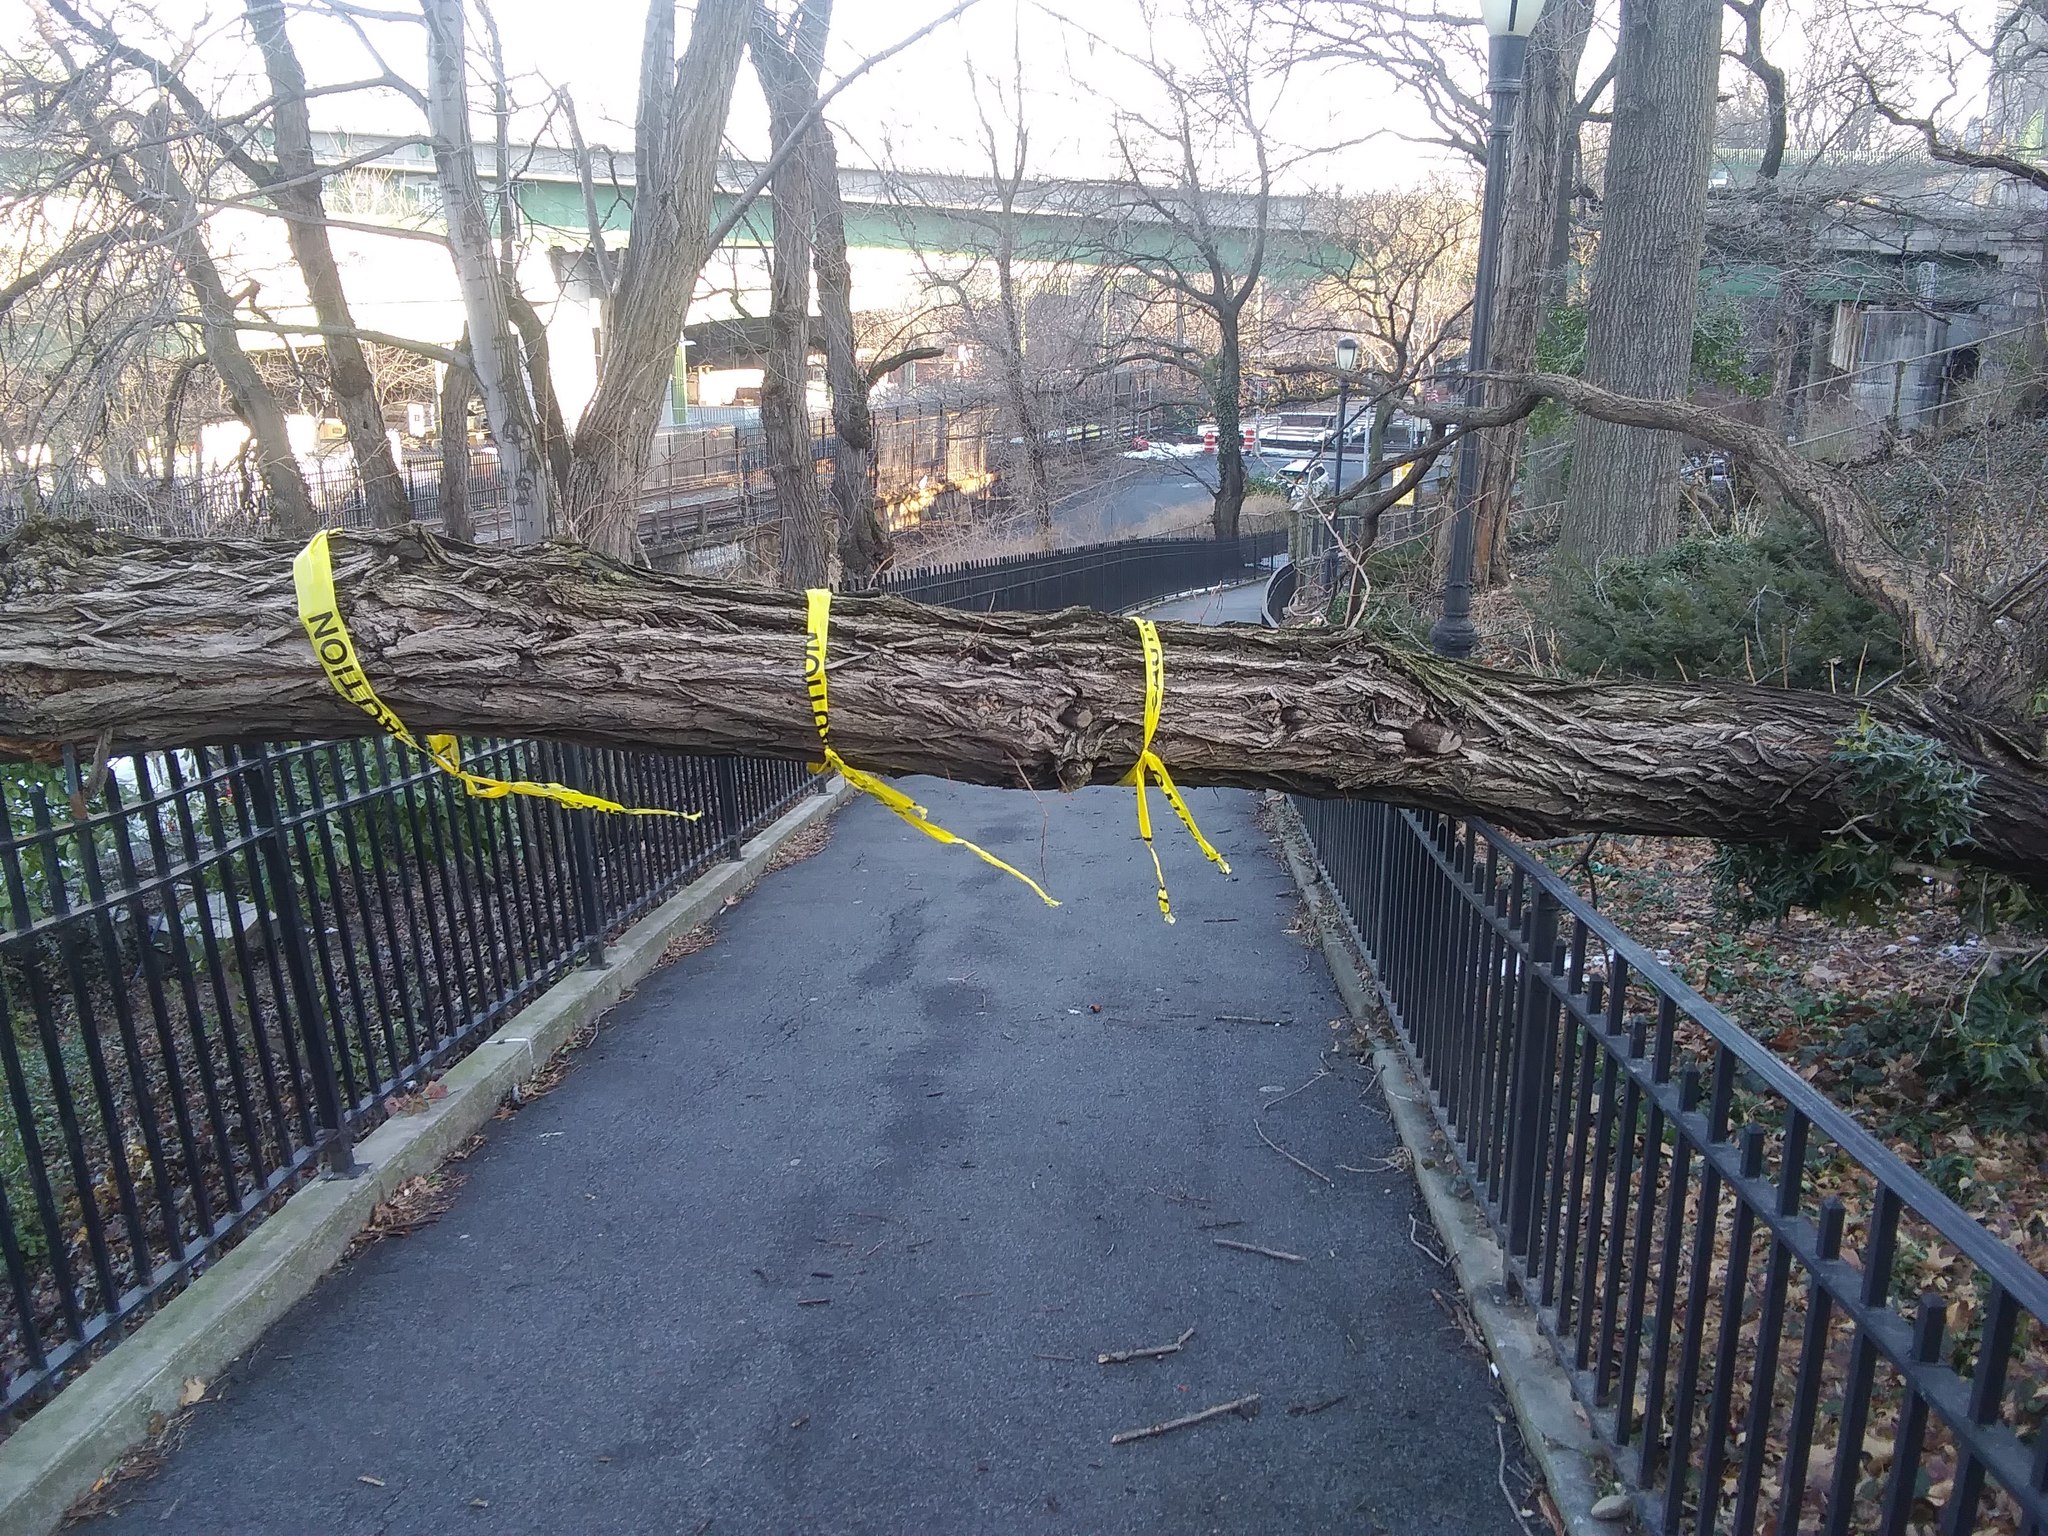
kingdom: Plantae
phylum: Tracheophyta
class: Magnoliopsida
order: Fabales
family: Fabaceae
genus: Robinia
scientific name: Robinia pseudoacacia
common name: Black locust
